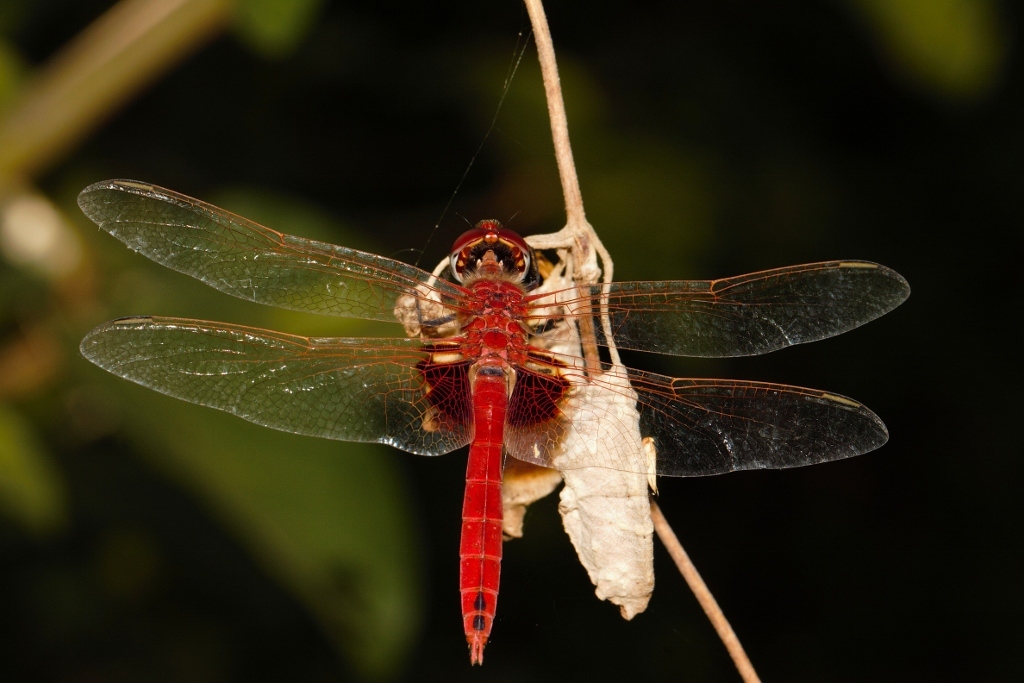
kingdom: Animalia
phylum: Arthropoda
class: Insecta
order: Odonata
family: Libellulidae
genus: Urothemis
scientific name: Urothemis assignata
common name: Red basker
